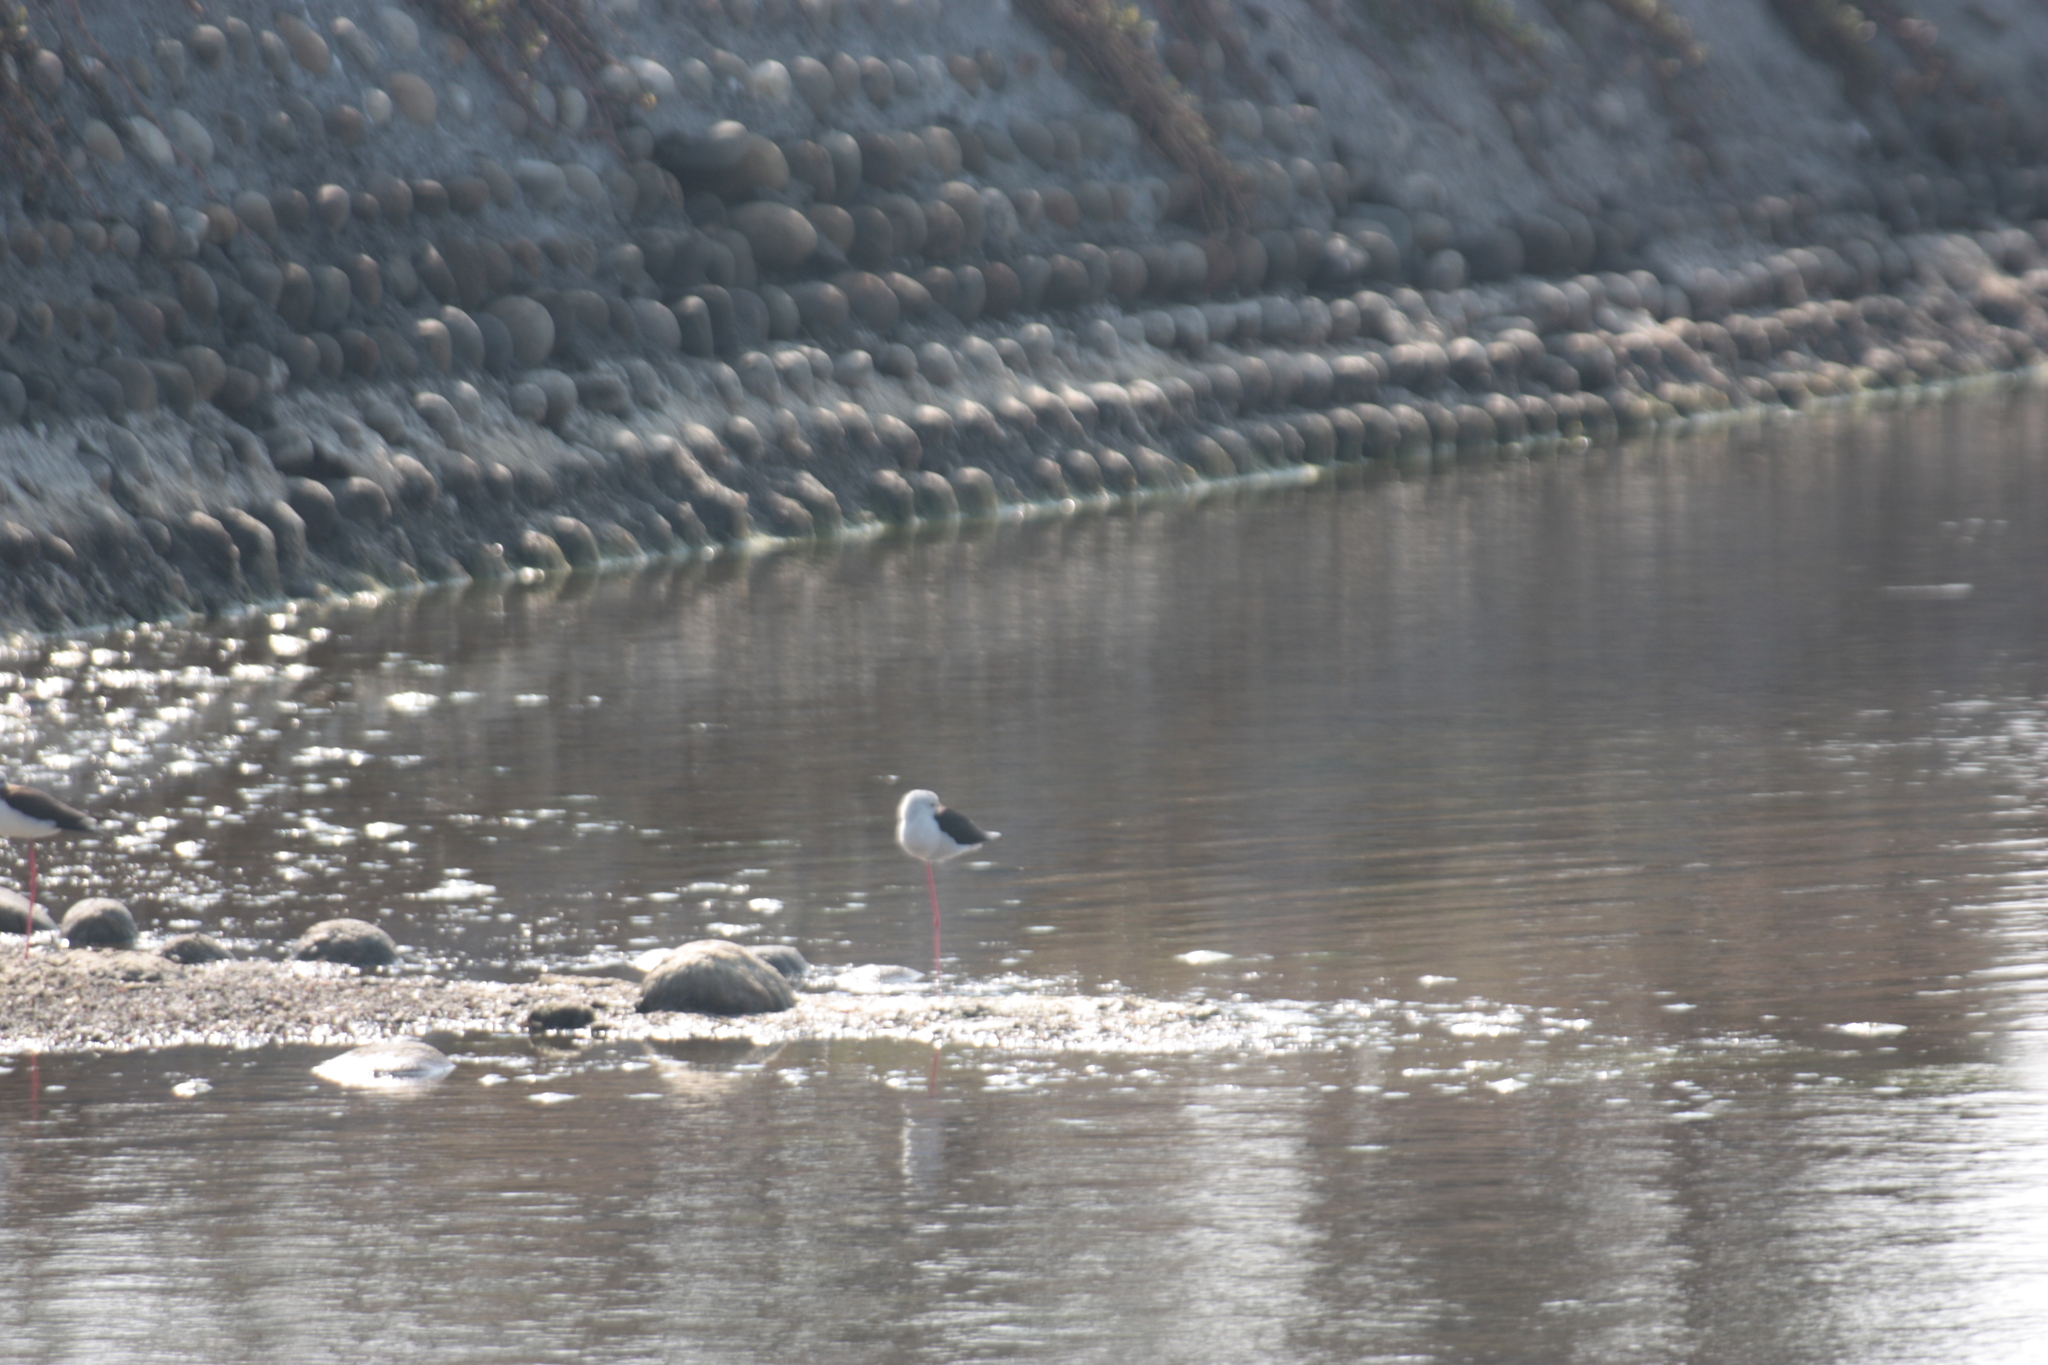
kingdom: Animalia
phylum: Chordata
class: Aves
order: Charadriiformes
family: Recurvirostridae
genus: Himantopus
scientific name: Himantopus himantopus
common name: Black-winged stilt
